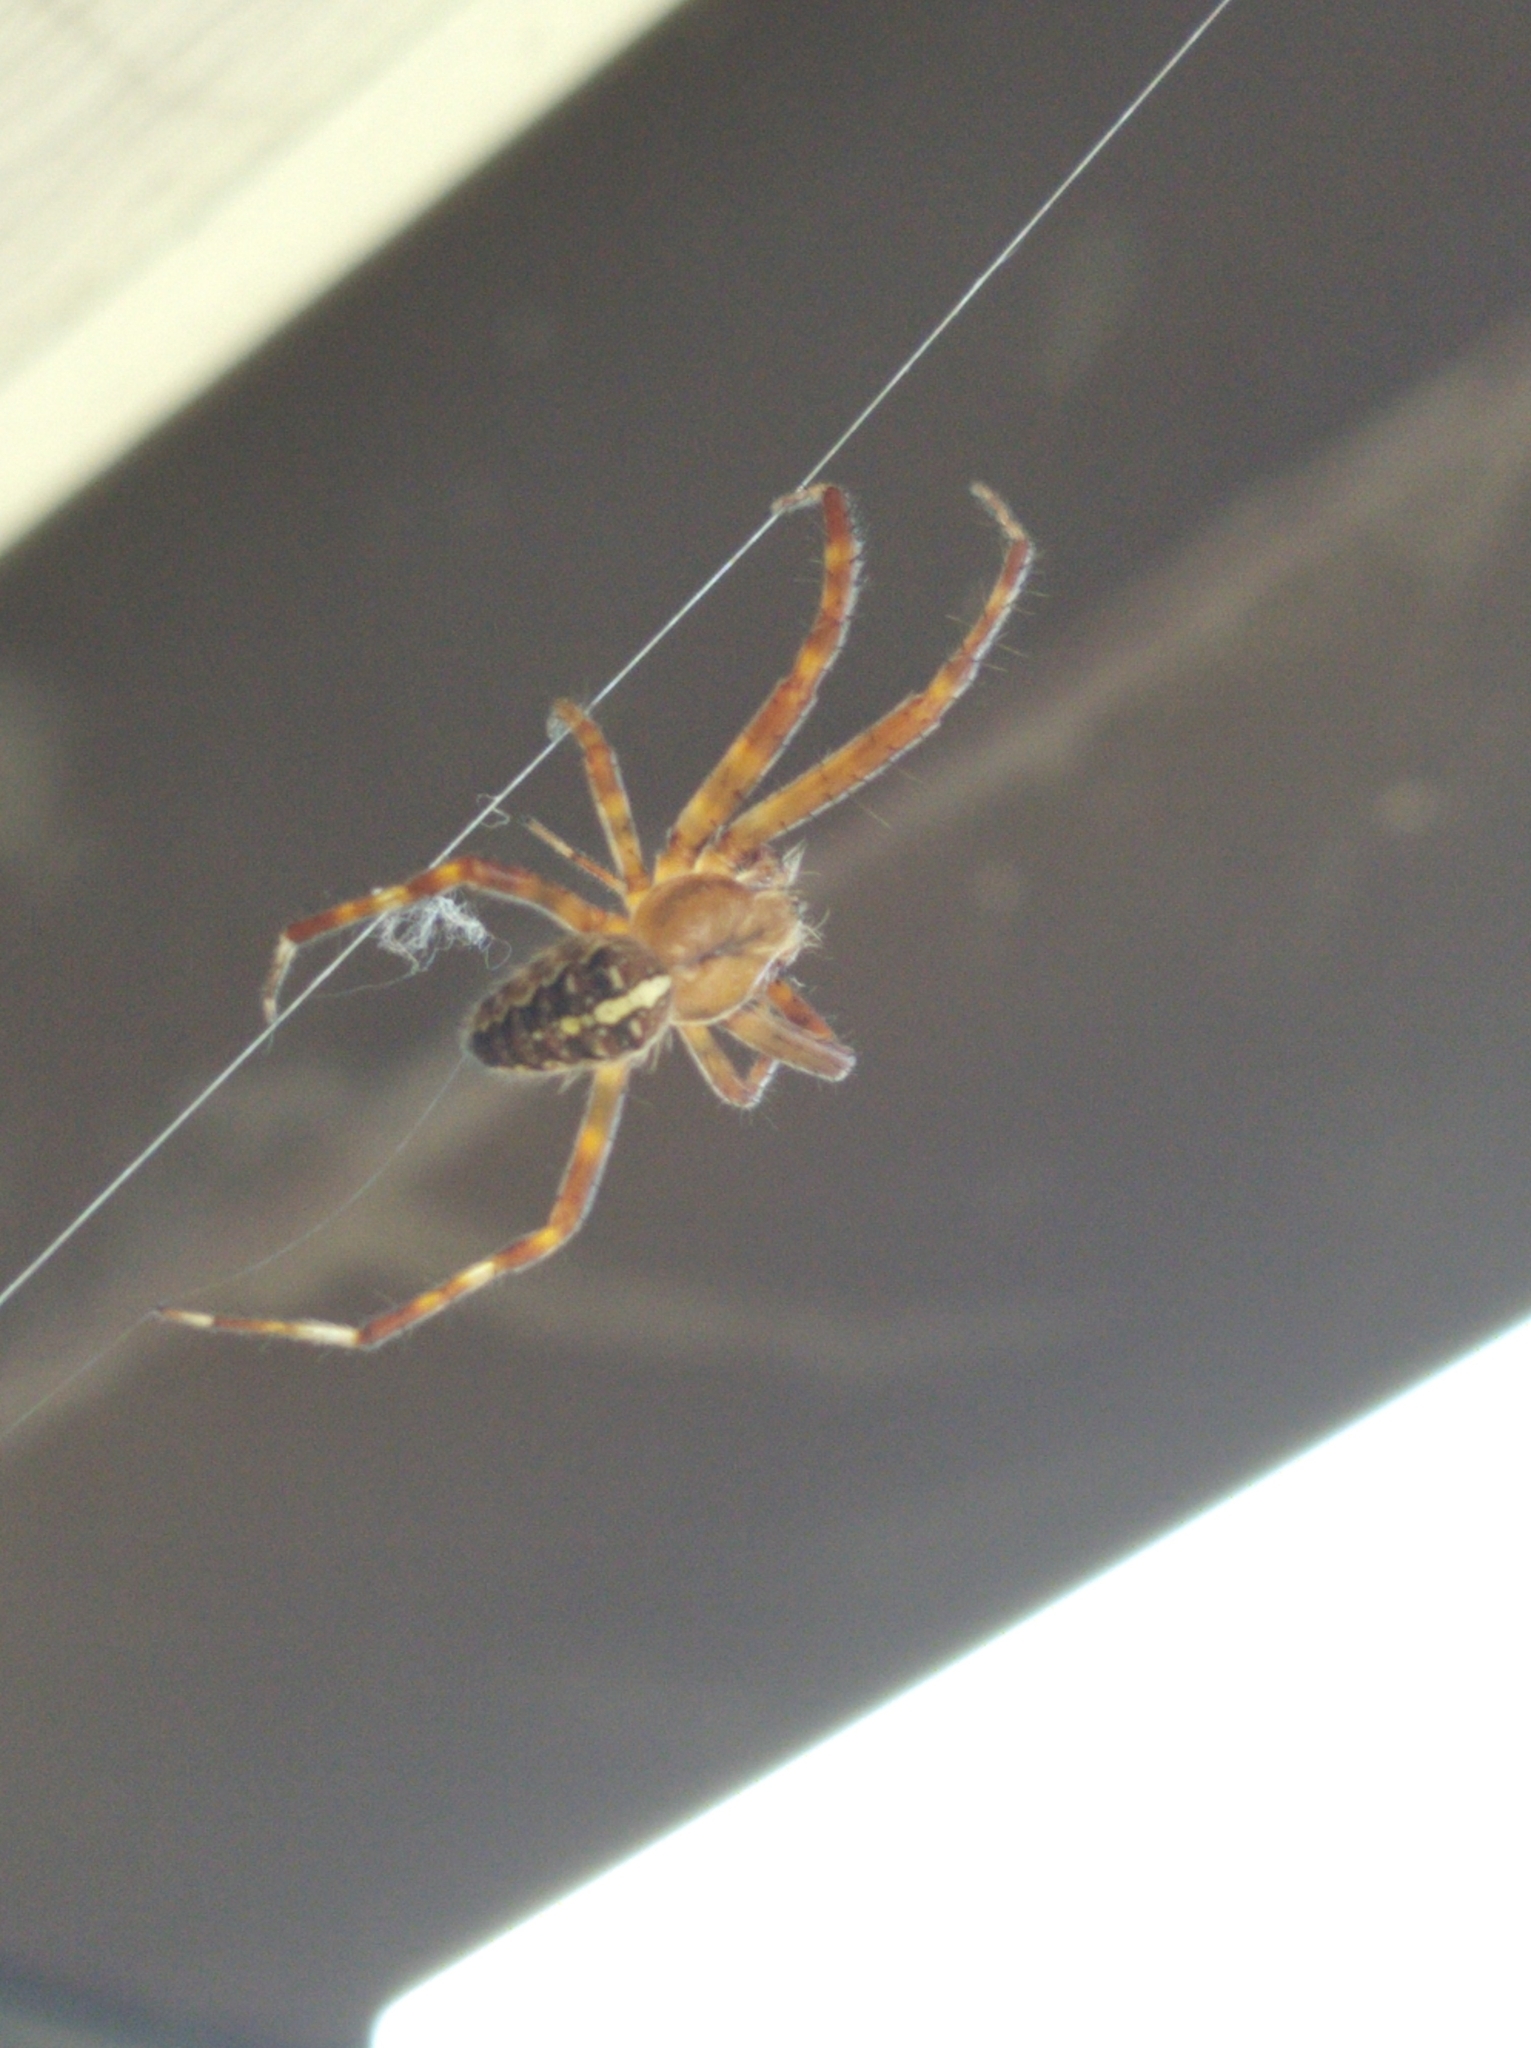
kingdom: Animalia
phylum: Arthropoda
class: Arachnida
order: Araneae
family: Araneidae
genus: Araneus
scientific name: Araneus diadematus
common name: Cross orbweaver
